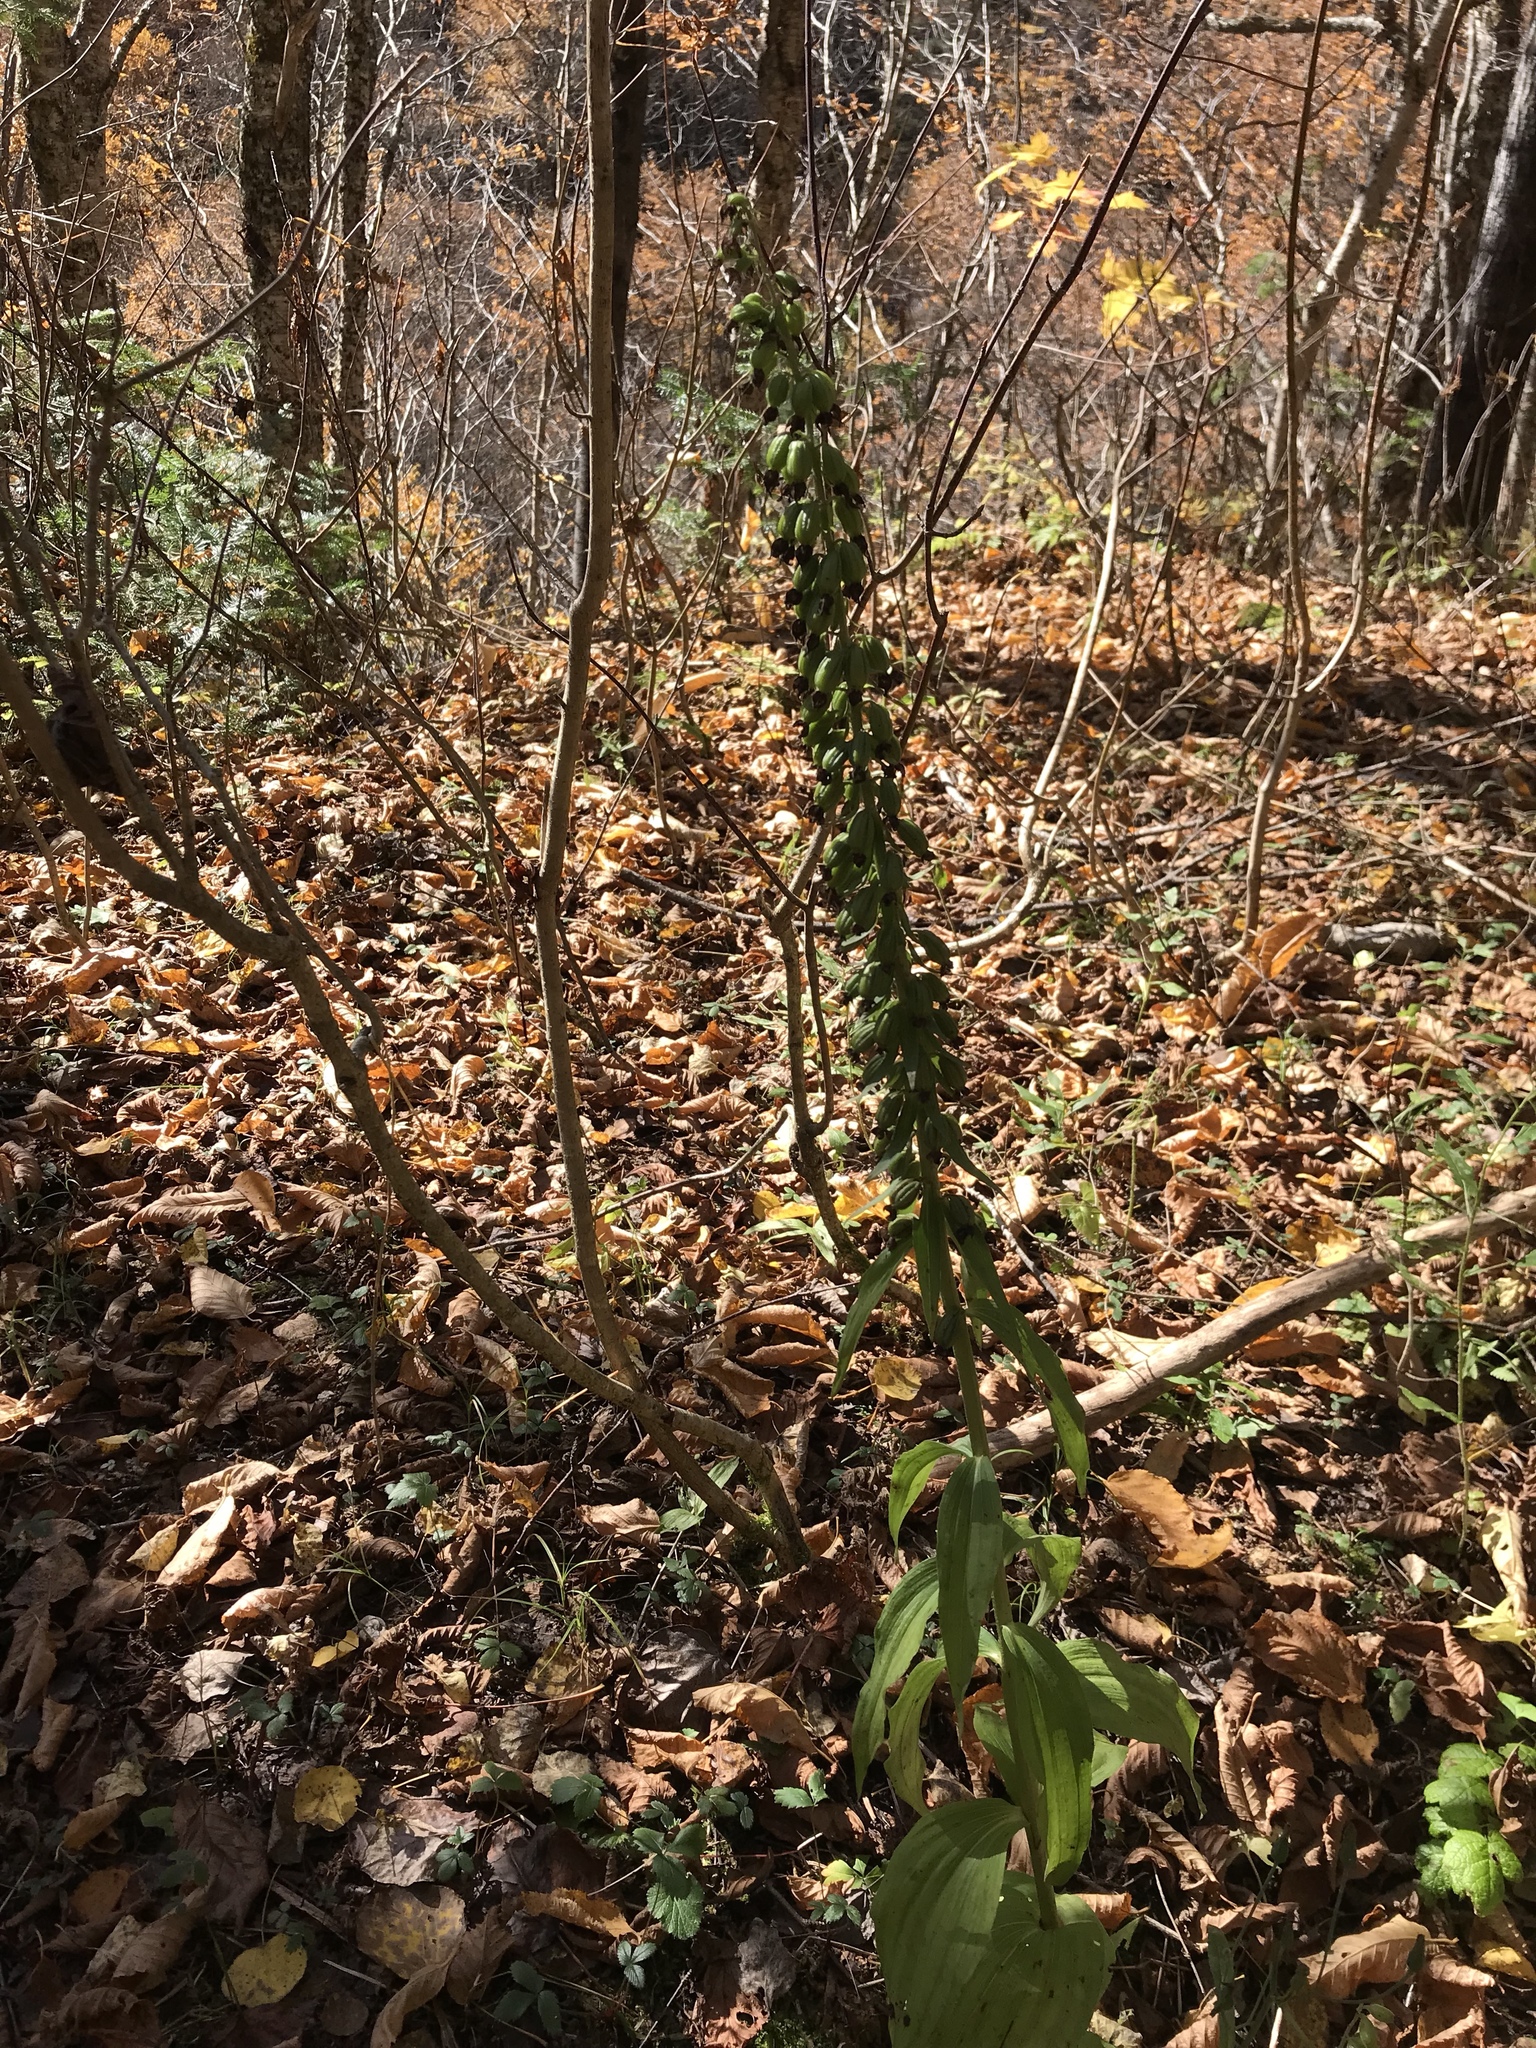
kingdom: Plantae
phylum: Tracheophyta
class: Liliopsida
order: Asparagales
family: Orchidaceae
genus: Epipactis
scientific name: Epipactis helleborine
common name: Broad-leaved helleborine
